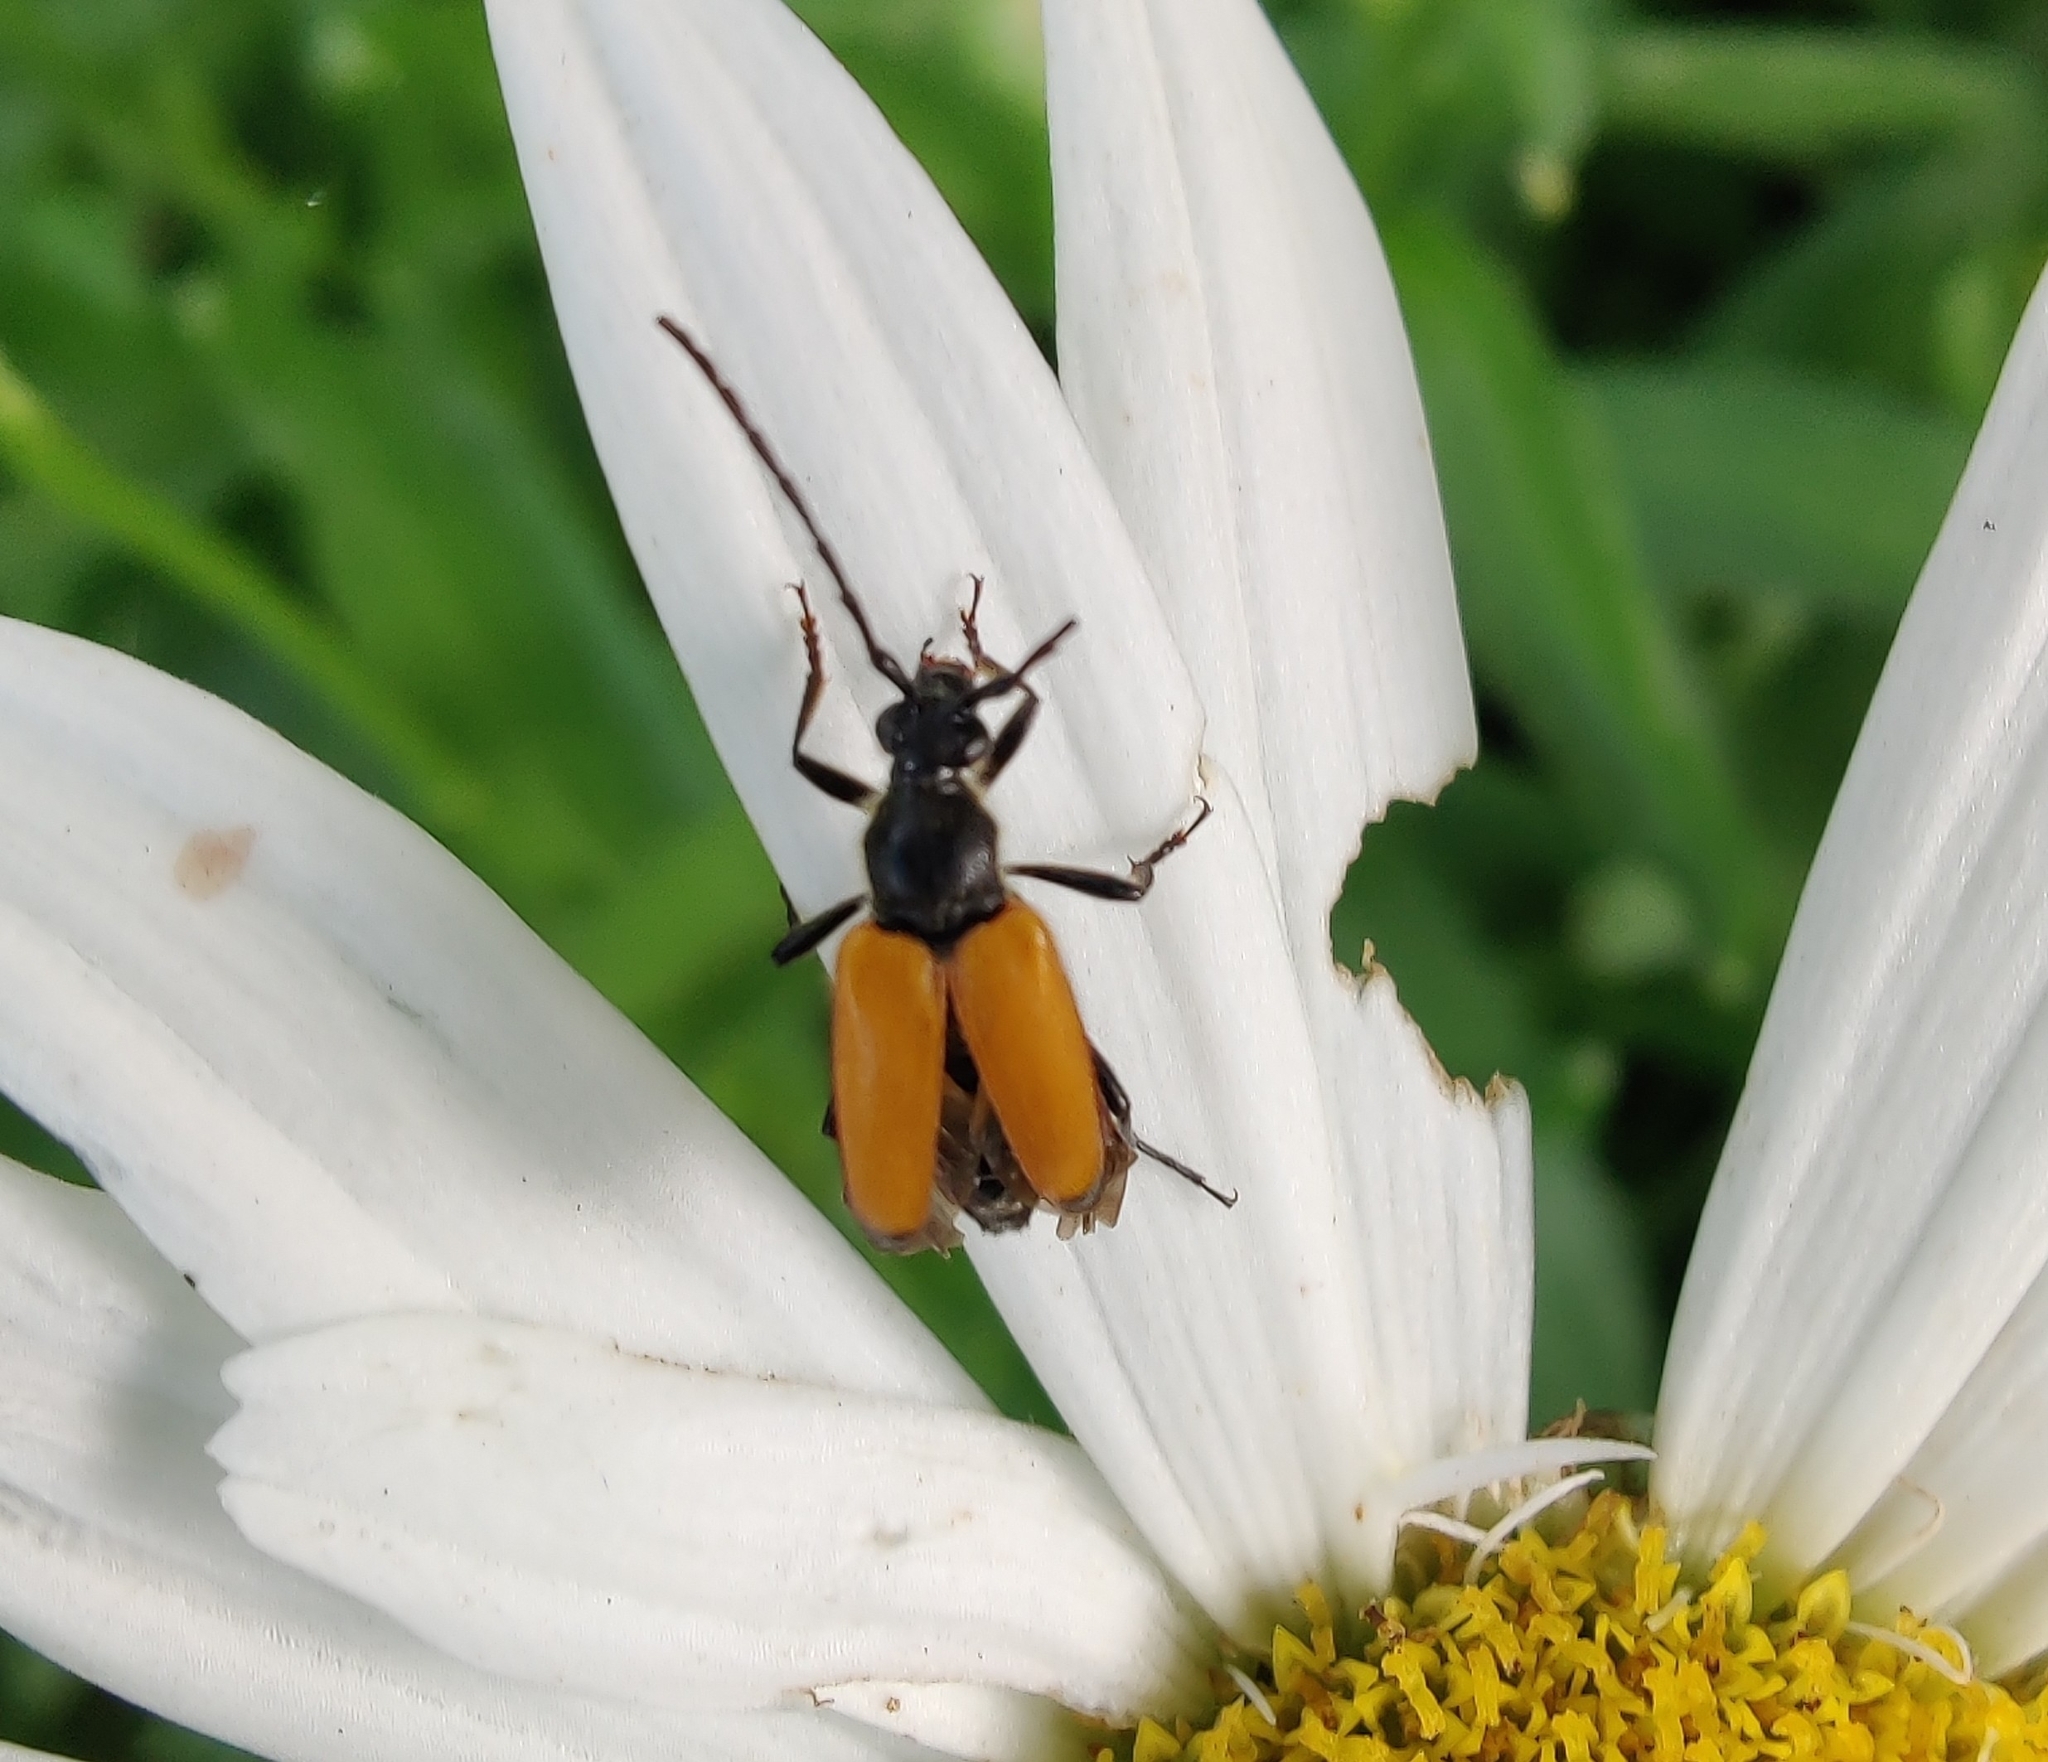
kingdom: Animalia
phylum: Arthropoda
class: Insecta
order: Coleoptera
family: Cerambycidae
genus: Paracorymbia
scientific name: Paracorymbia fulva
